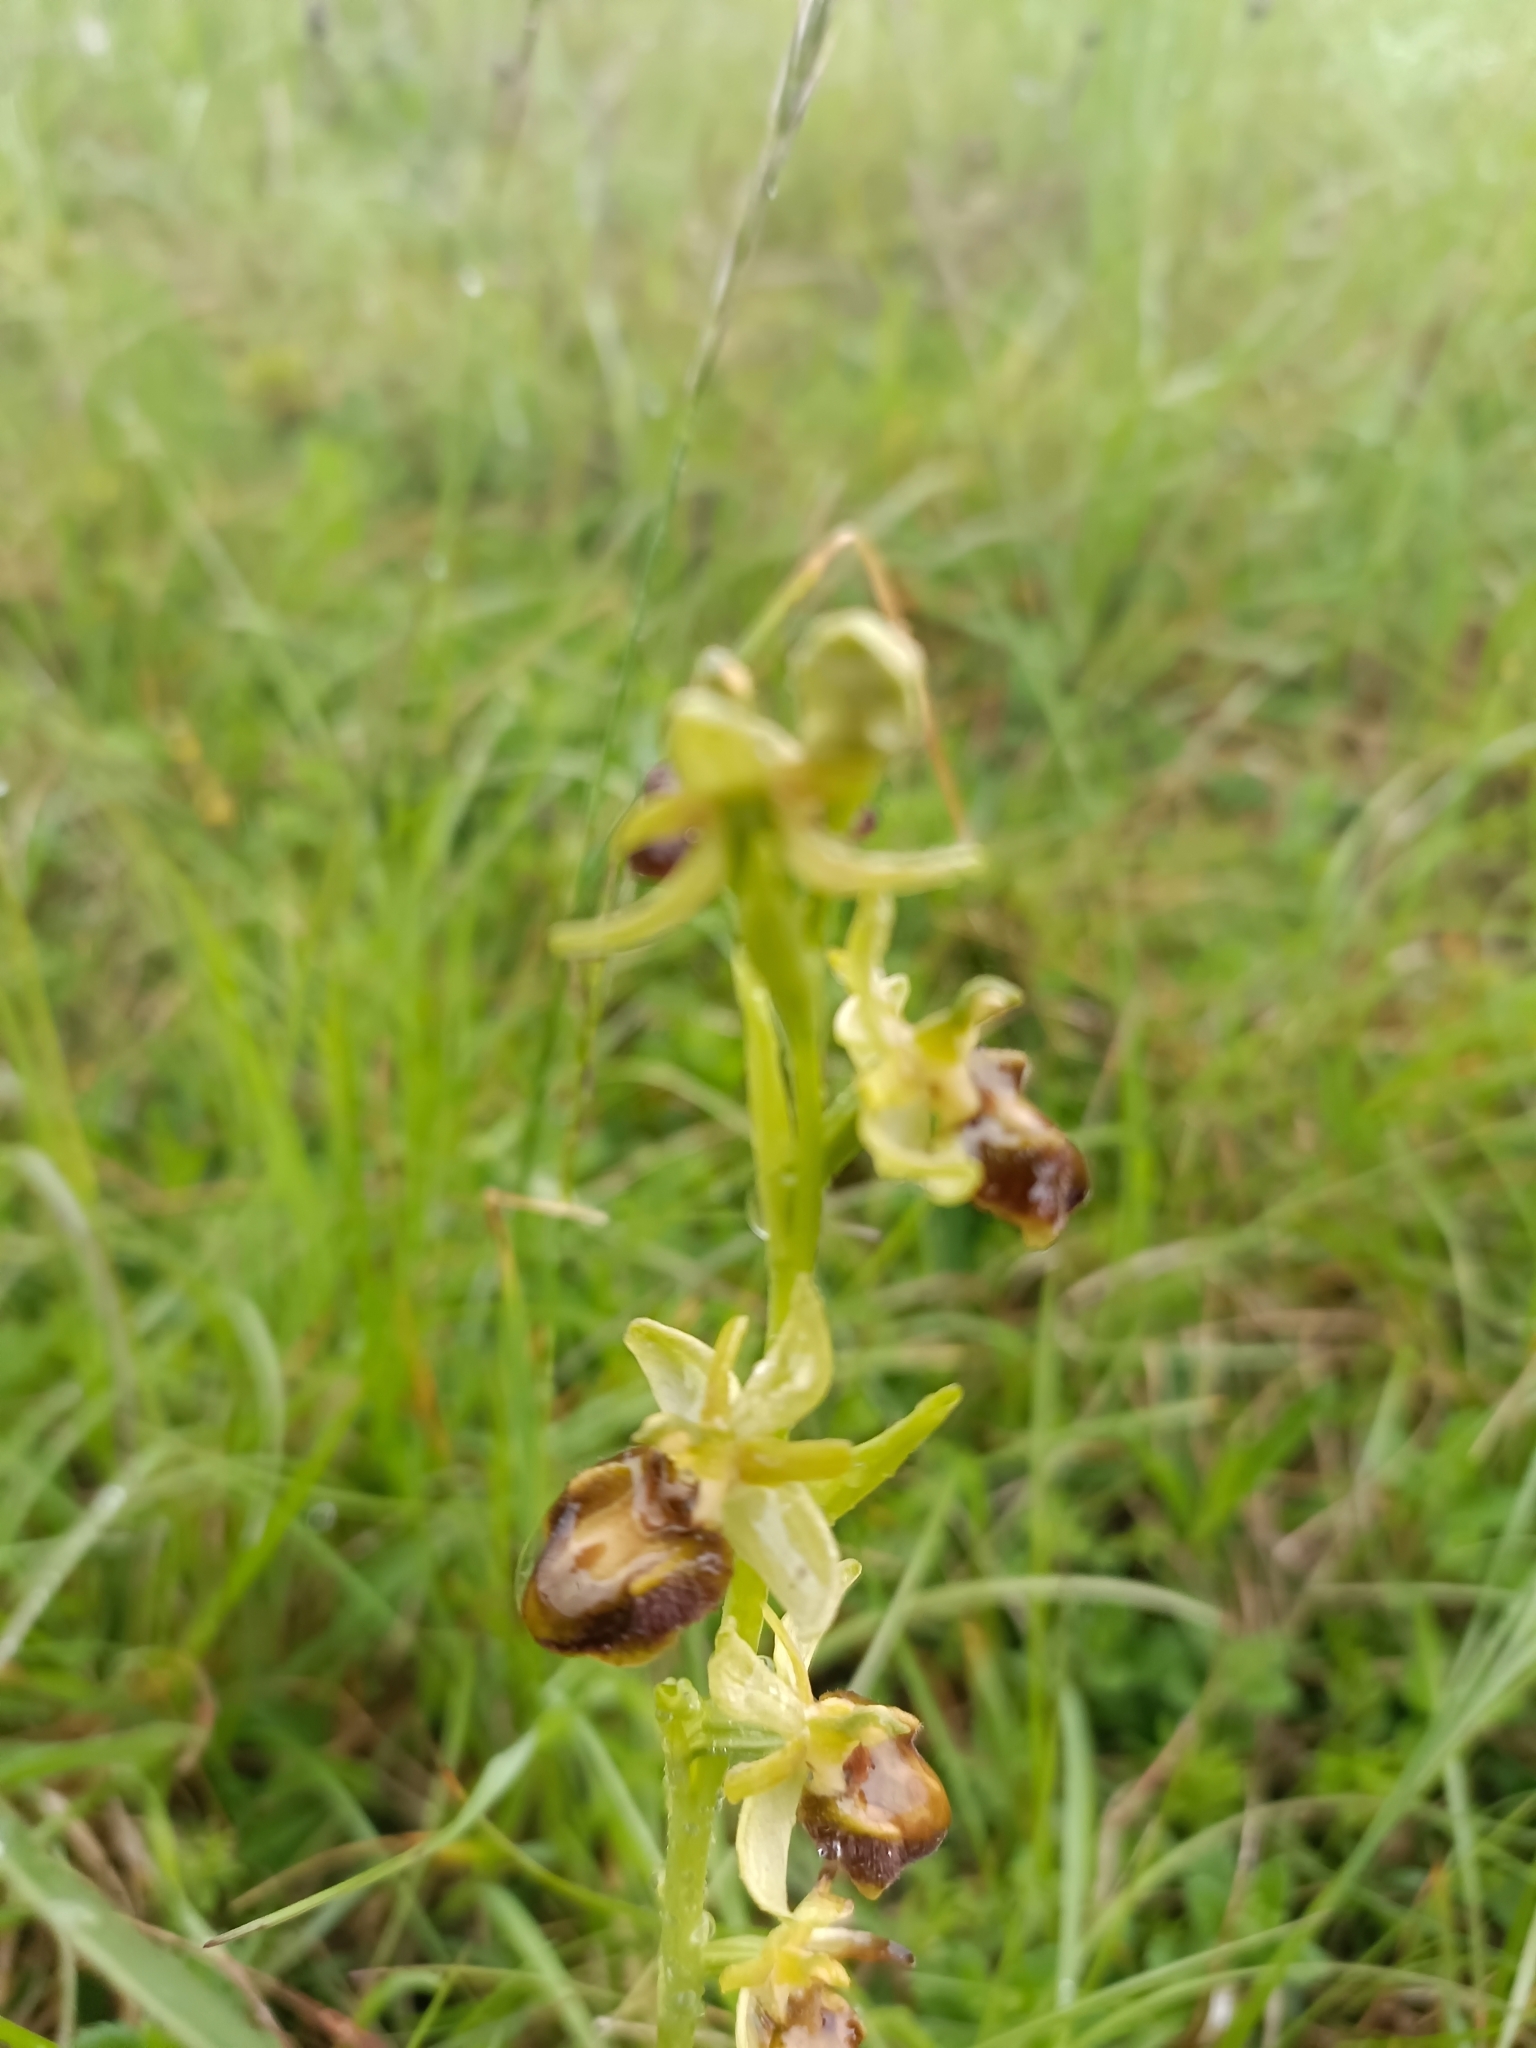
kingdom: Plantae
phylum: Tracheophyta
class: Liliopsida
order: Asparagales
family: Orchidaceae
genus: Ophrys
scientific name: Ophrys sphegodes
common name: Early spider-orchid
